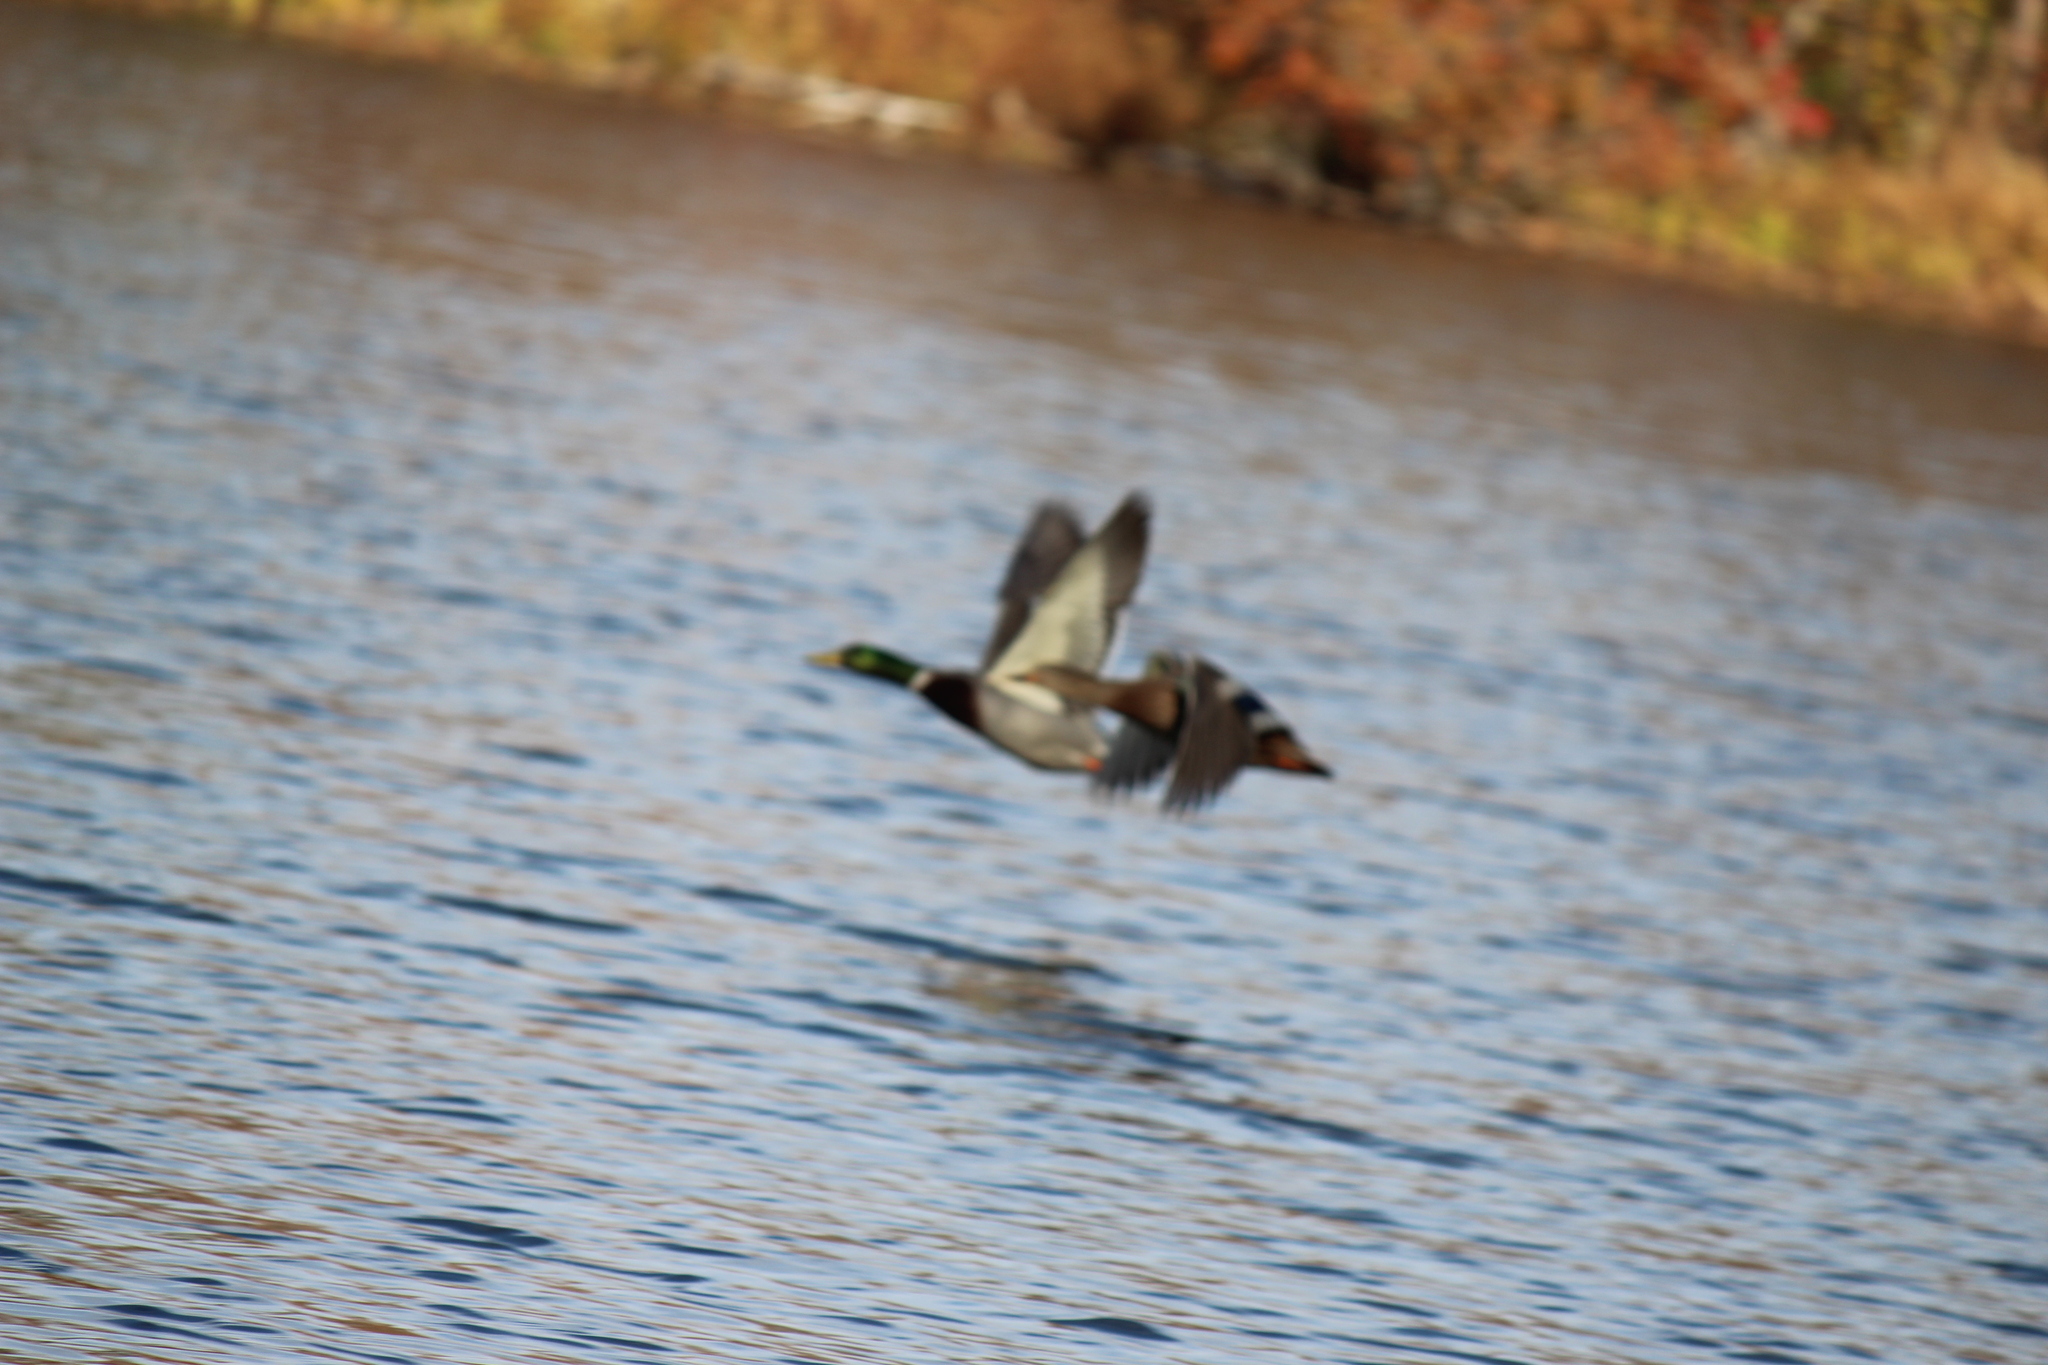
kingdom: Animalia
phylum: Chordata
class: Aves
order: Anseriformes
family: Anatidae
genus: Anas
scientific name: Anas platyrhynchos
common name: Mallard
